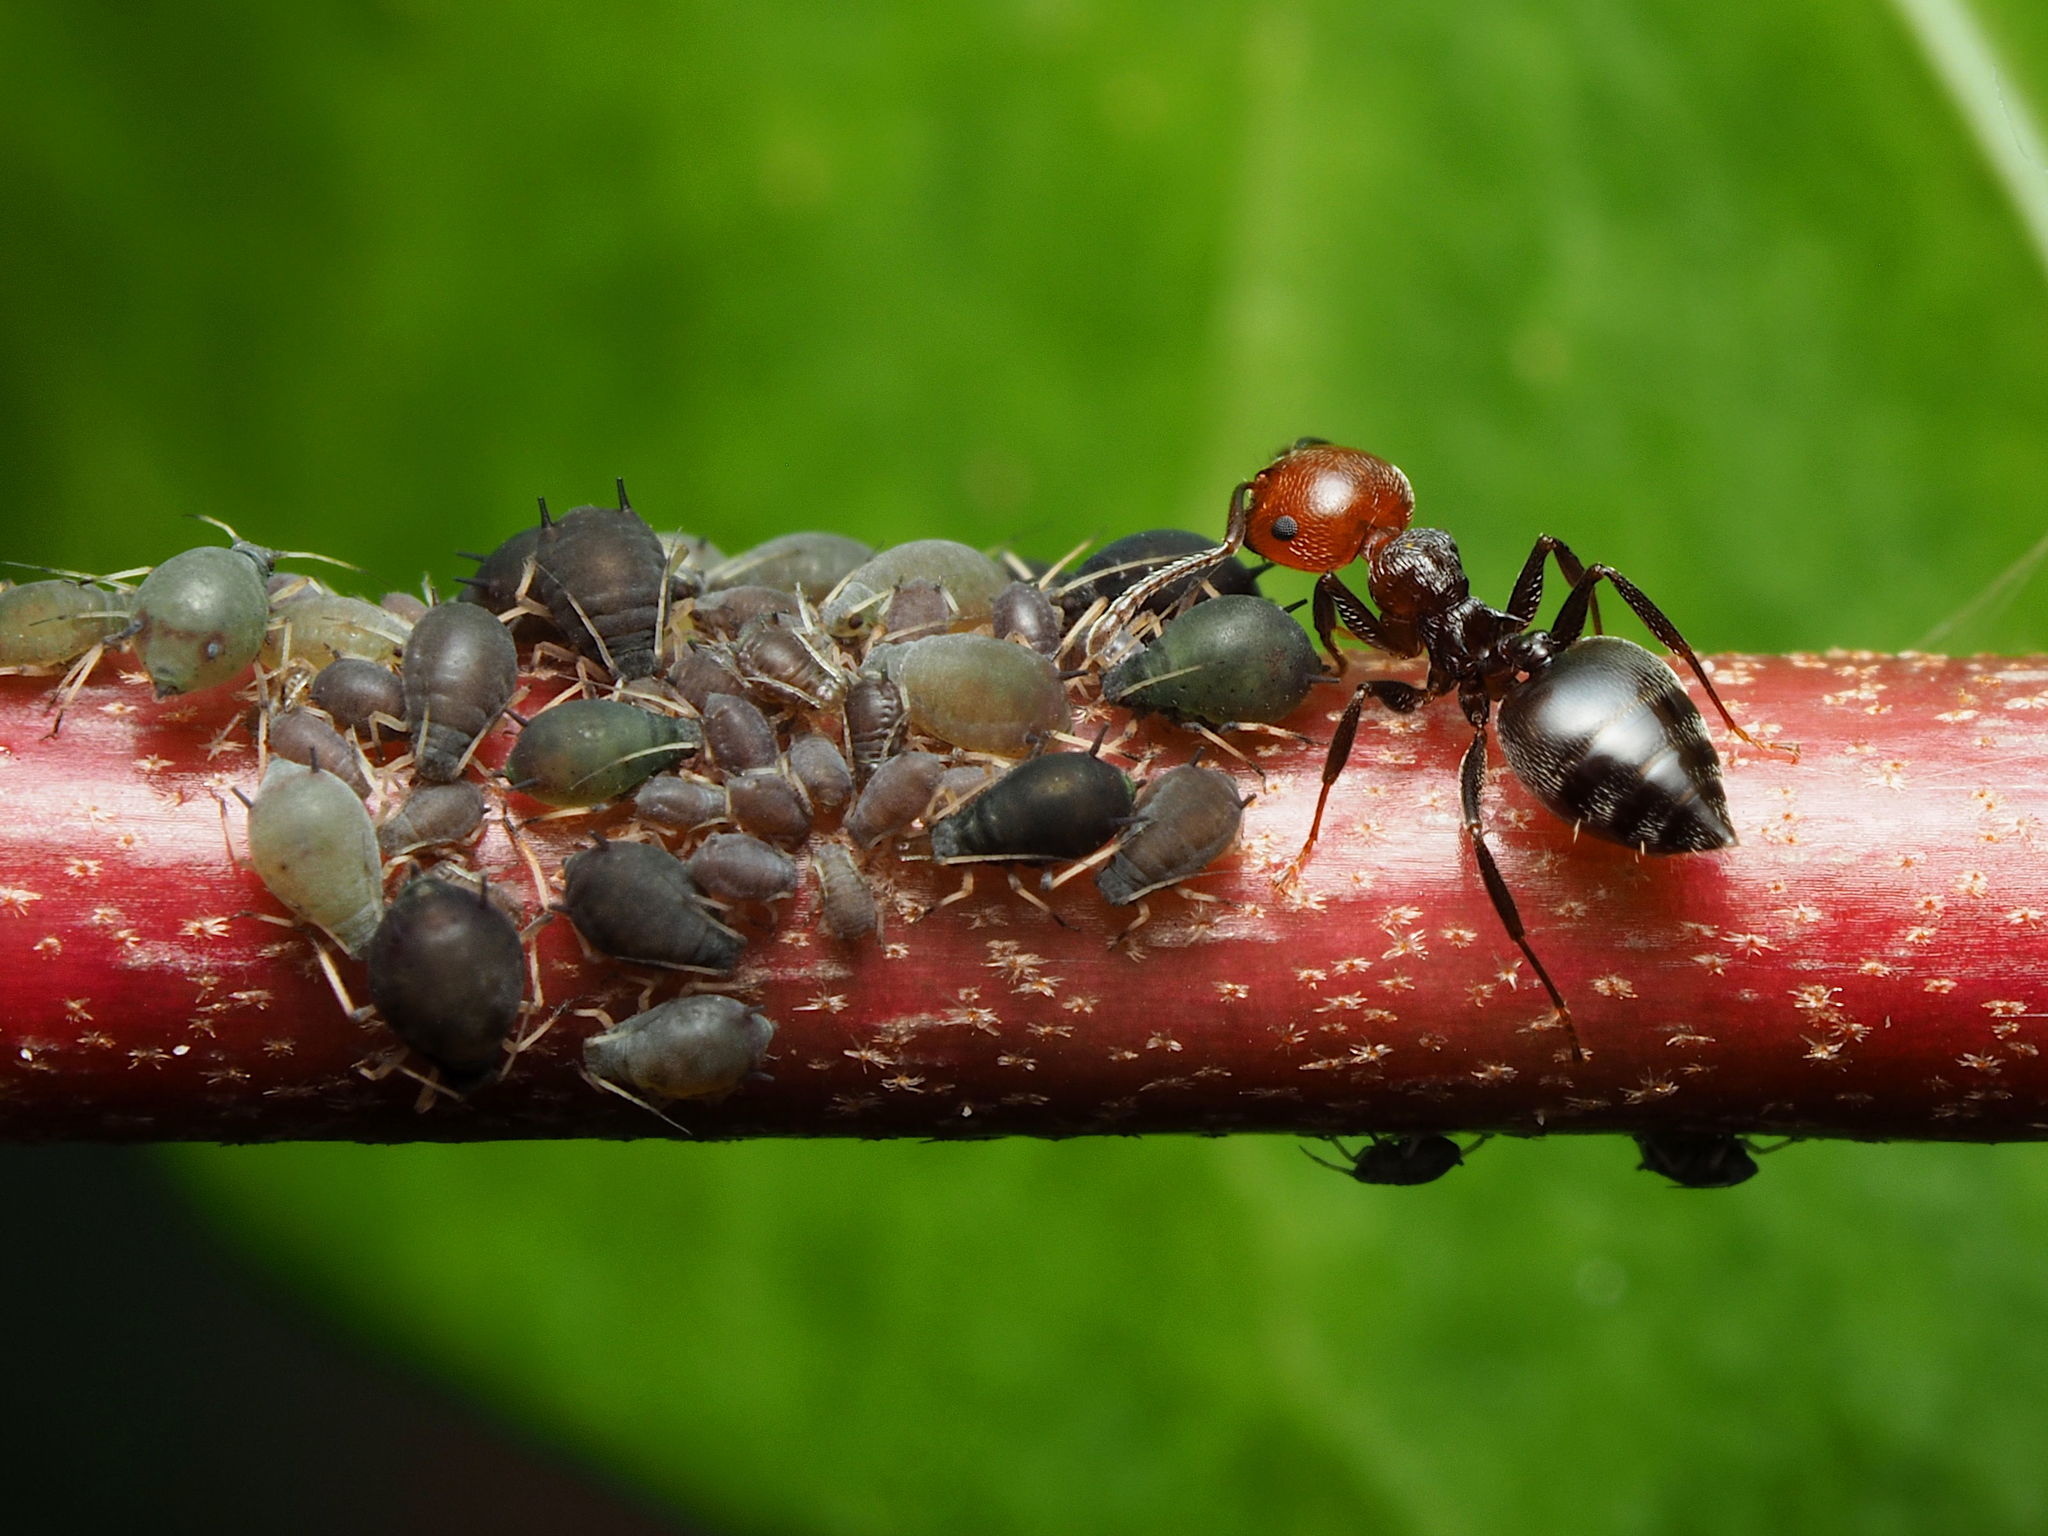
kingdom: Animalia
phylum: Arthropoda
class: Insecta
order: Hymenoptera
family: Formicidae
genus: Crematogaster
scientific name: Crematogaster scutellaris
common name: Fourmi du liège
